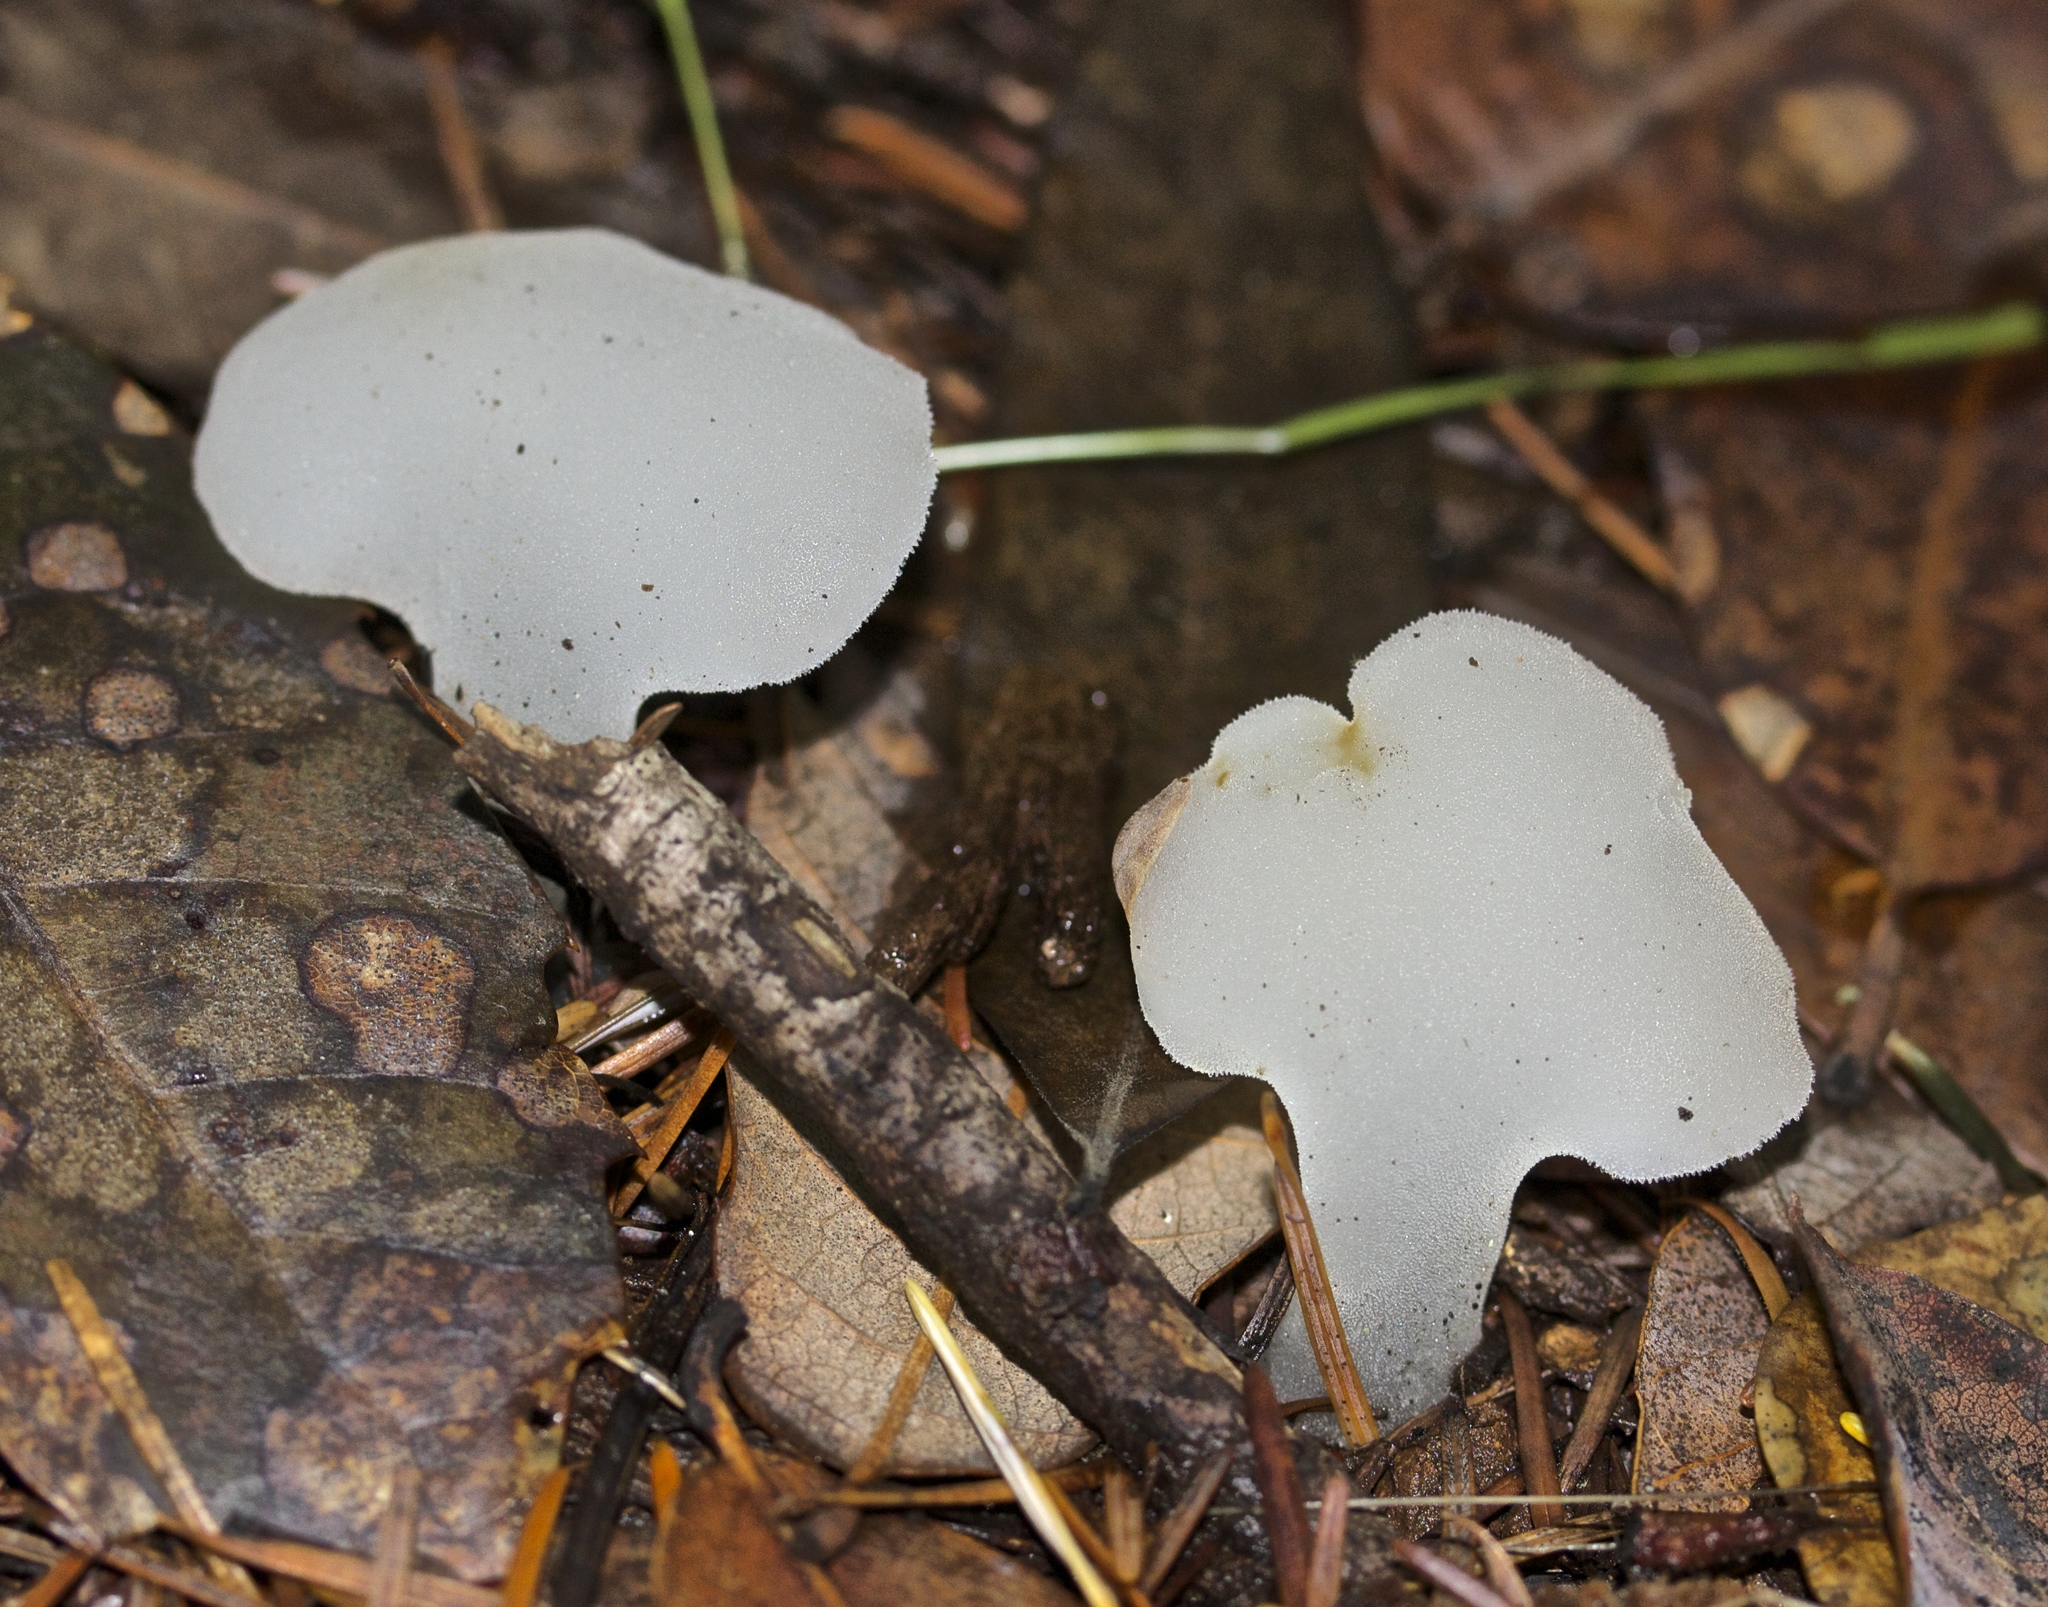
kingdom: Fungi
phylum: Basidiomycota
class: Agaricomycetes
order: Auriculariales
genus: Pseudohydnum
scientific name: Pseudohydnum gelatinosum
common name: Jelly tongue
